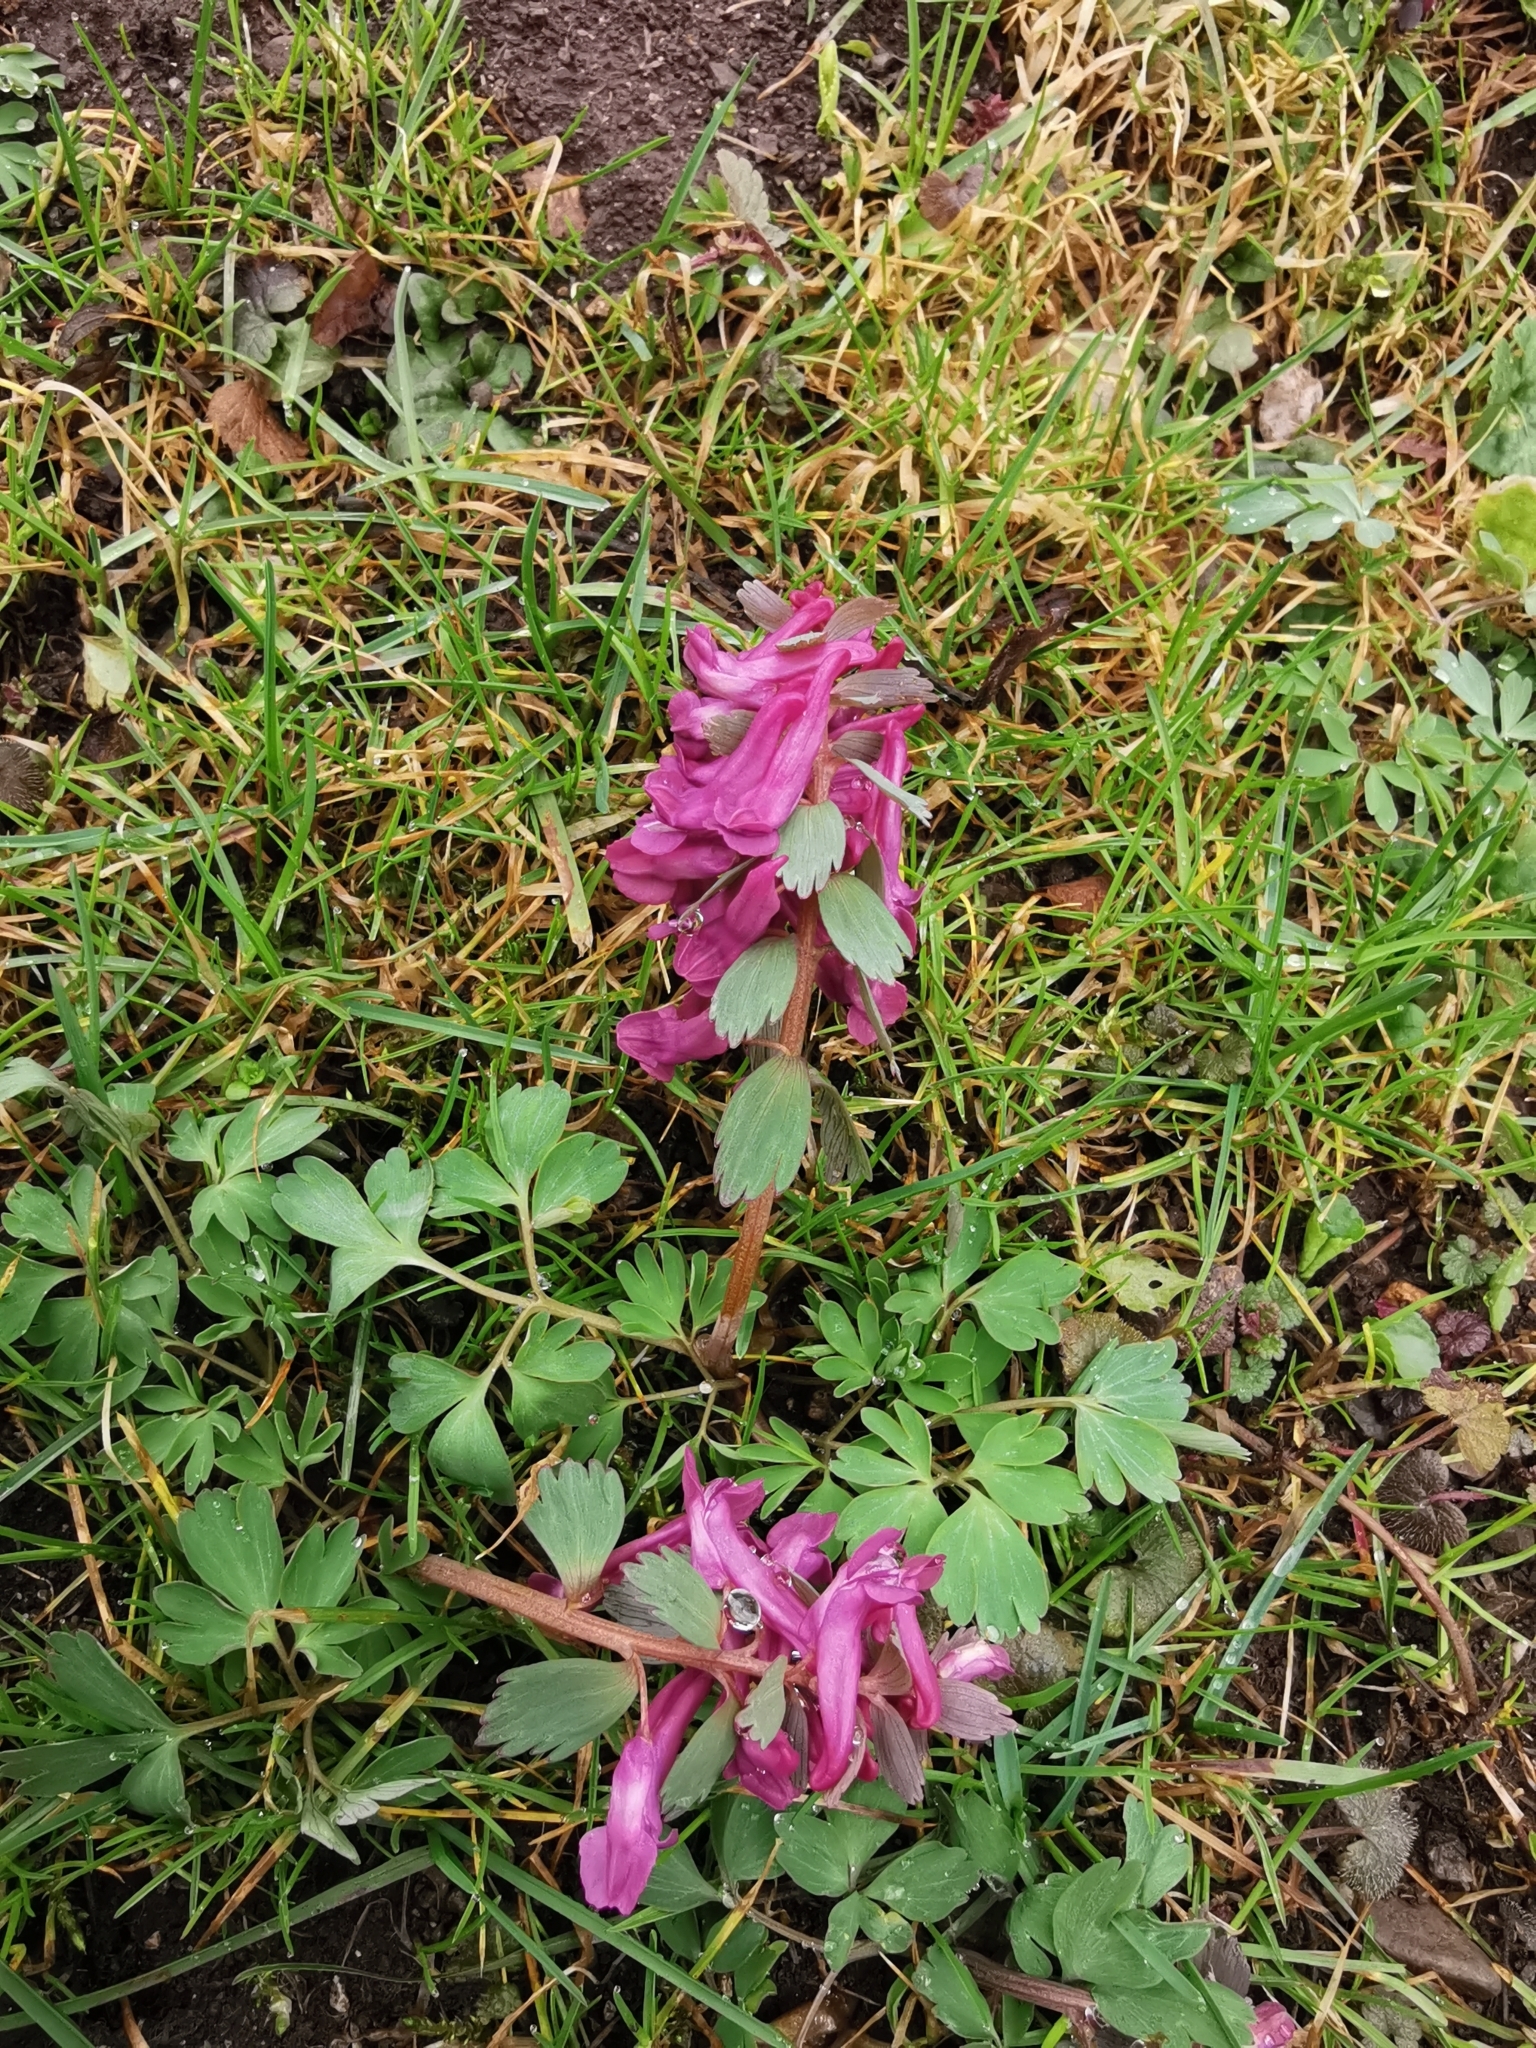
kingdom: Plantae
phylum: Tracheophyta
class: Magnoliopsida
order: Ranunculales
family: Papaveraceae
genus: Corydalis
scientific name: Corydalis solida
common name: Bird-in-a-bush
